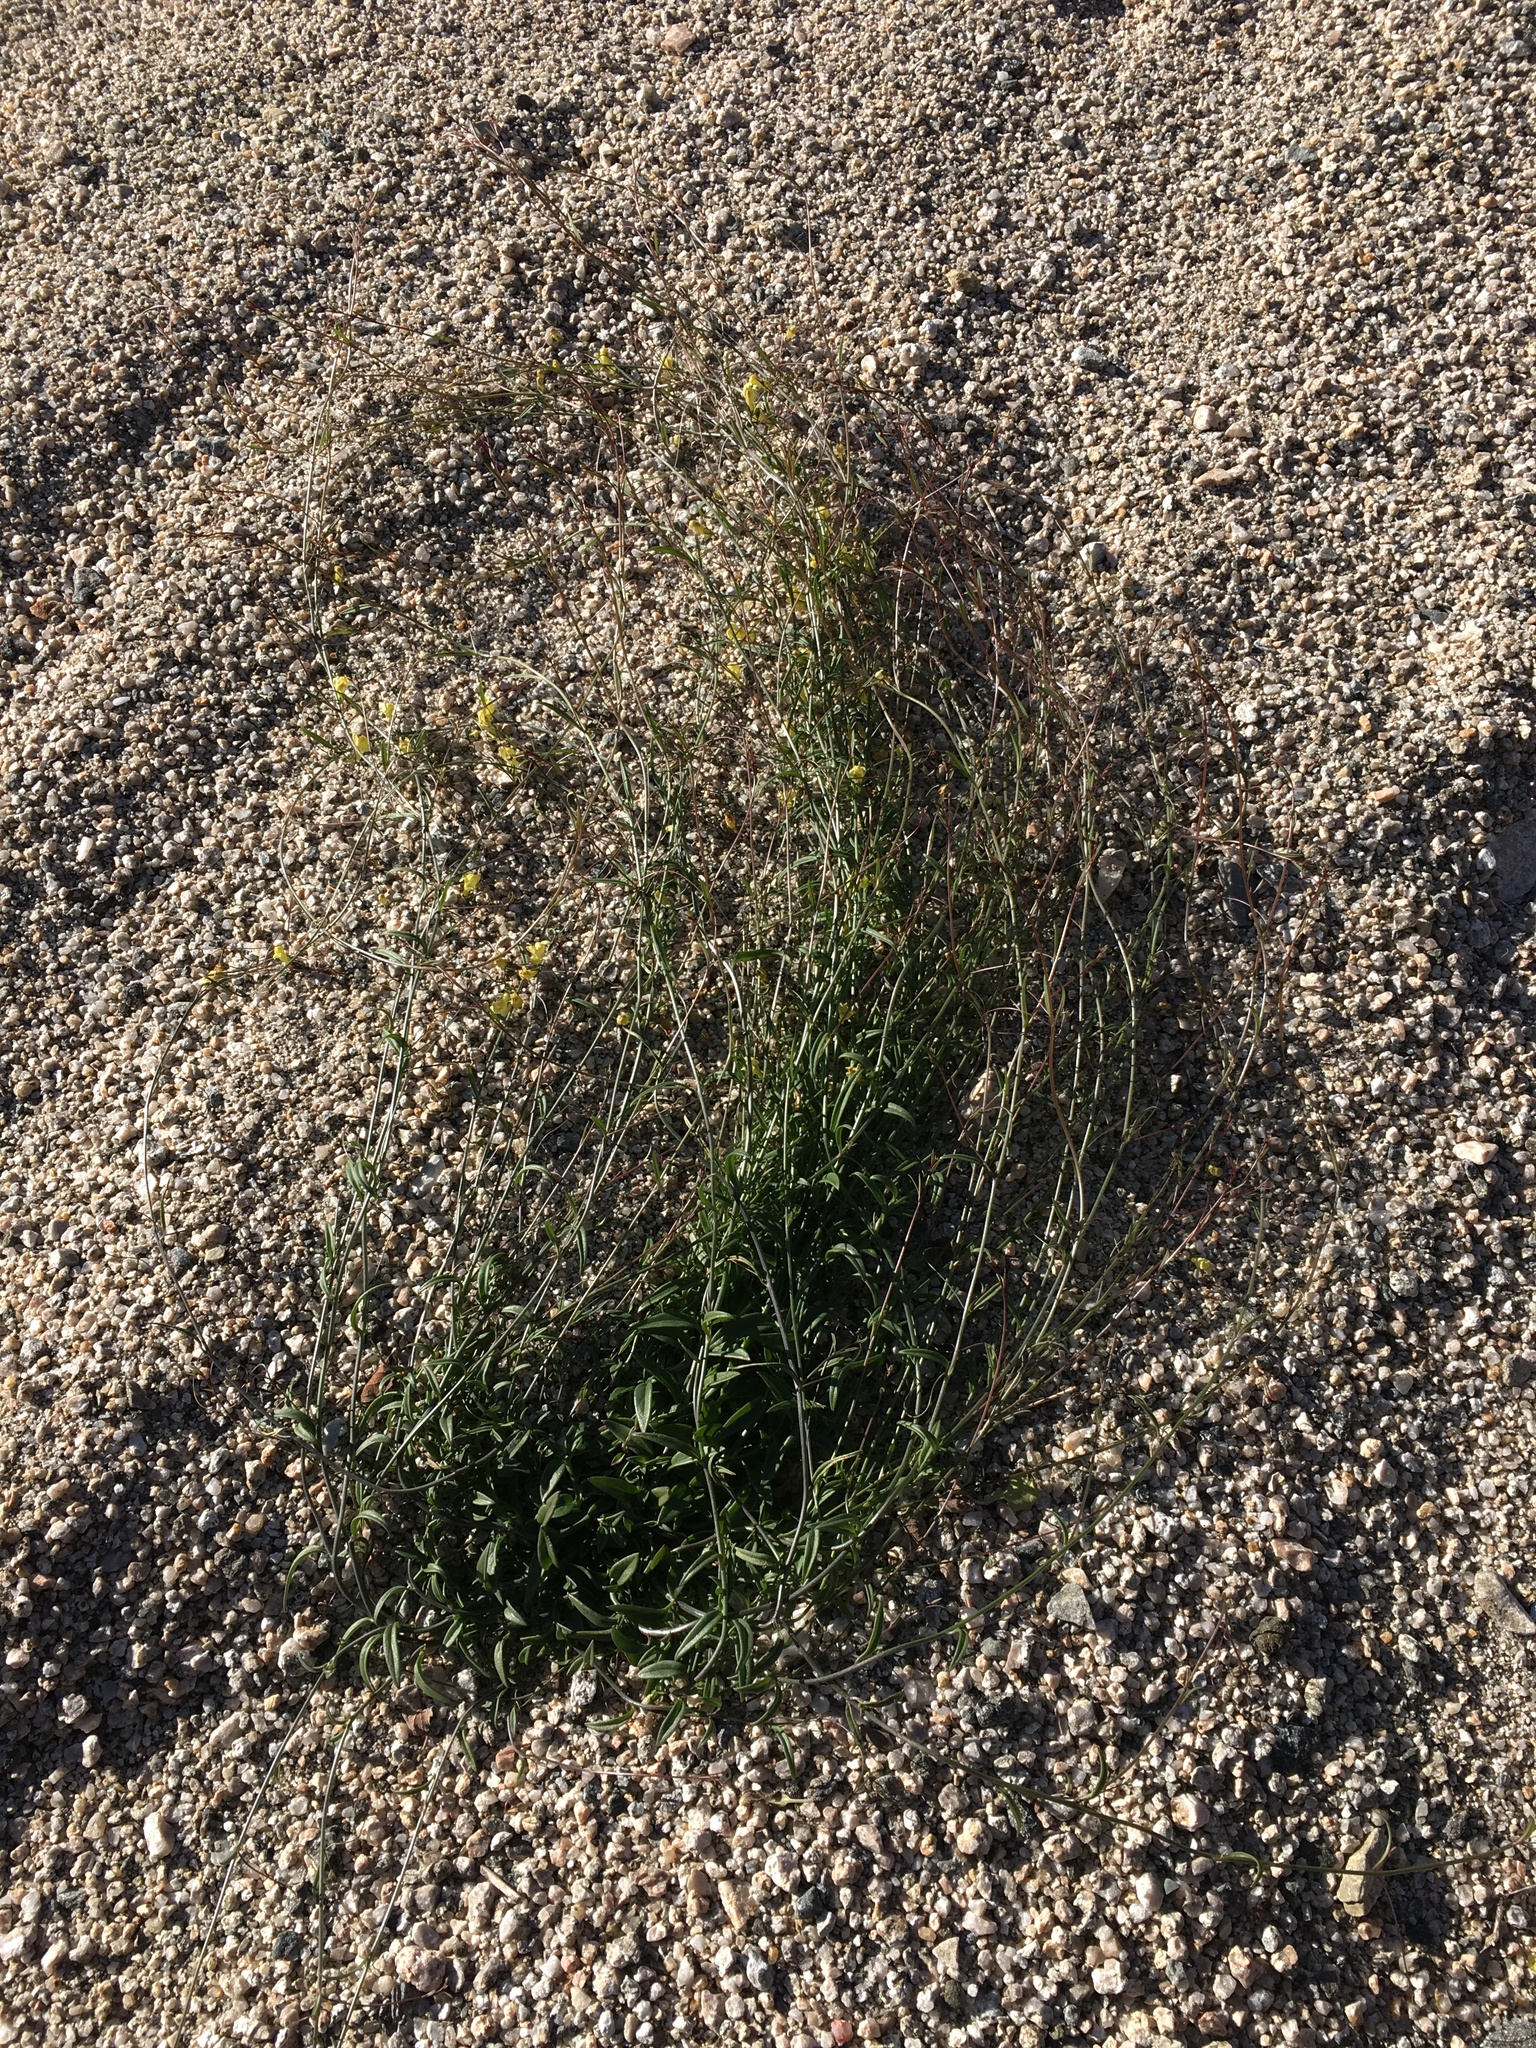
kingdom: Plantae
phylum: Tracheophyta
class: Magnoliopsida
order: Lamiales
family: Plantaginaceae
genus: Neogaerrhinum
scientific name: Neogaerrhinum filipes
